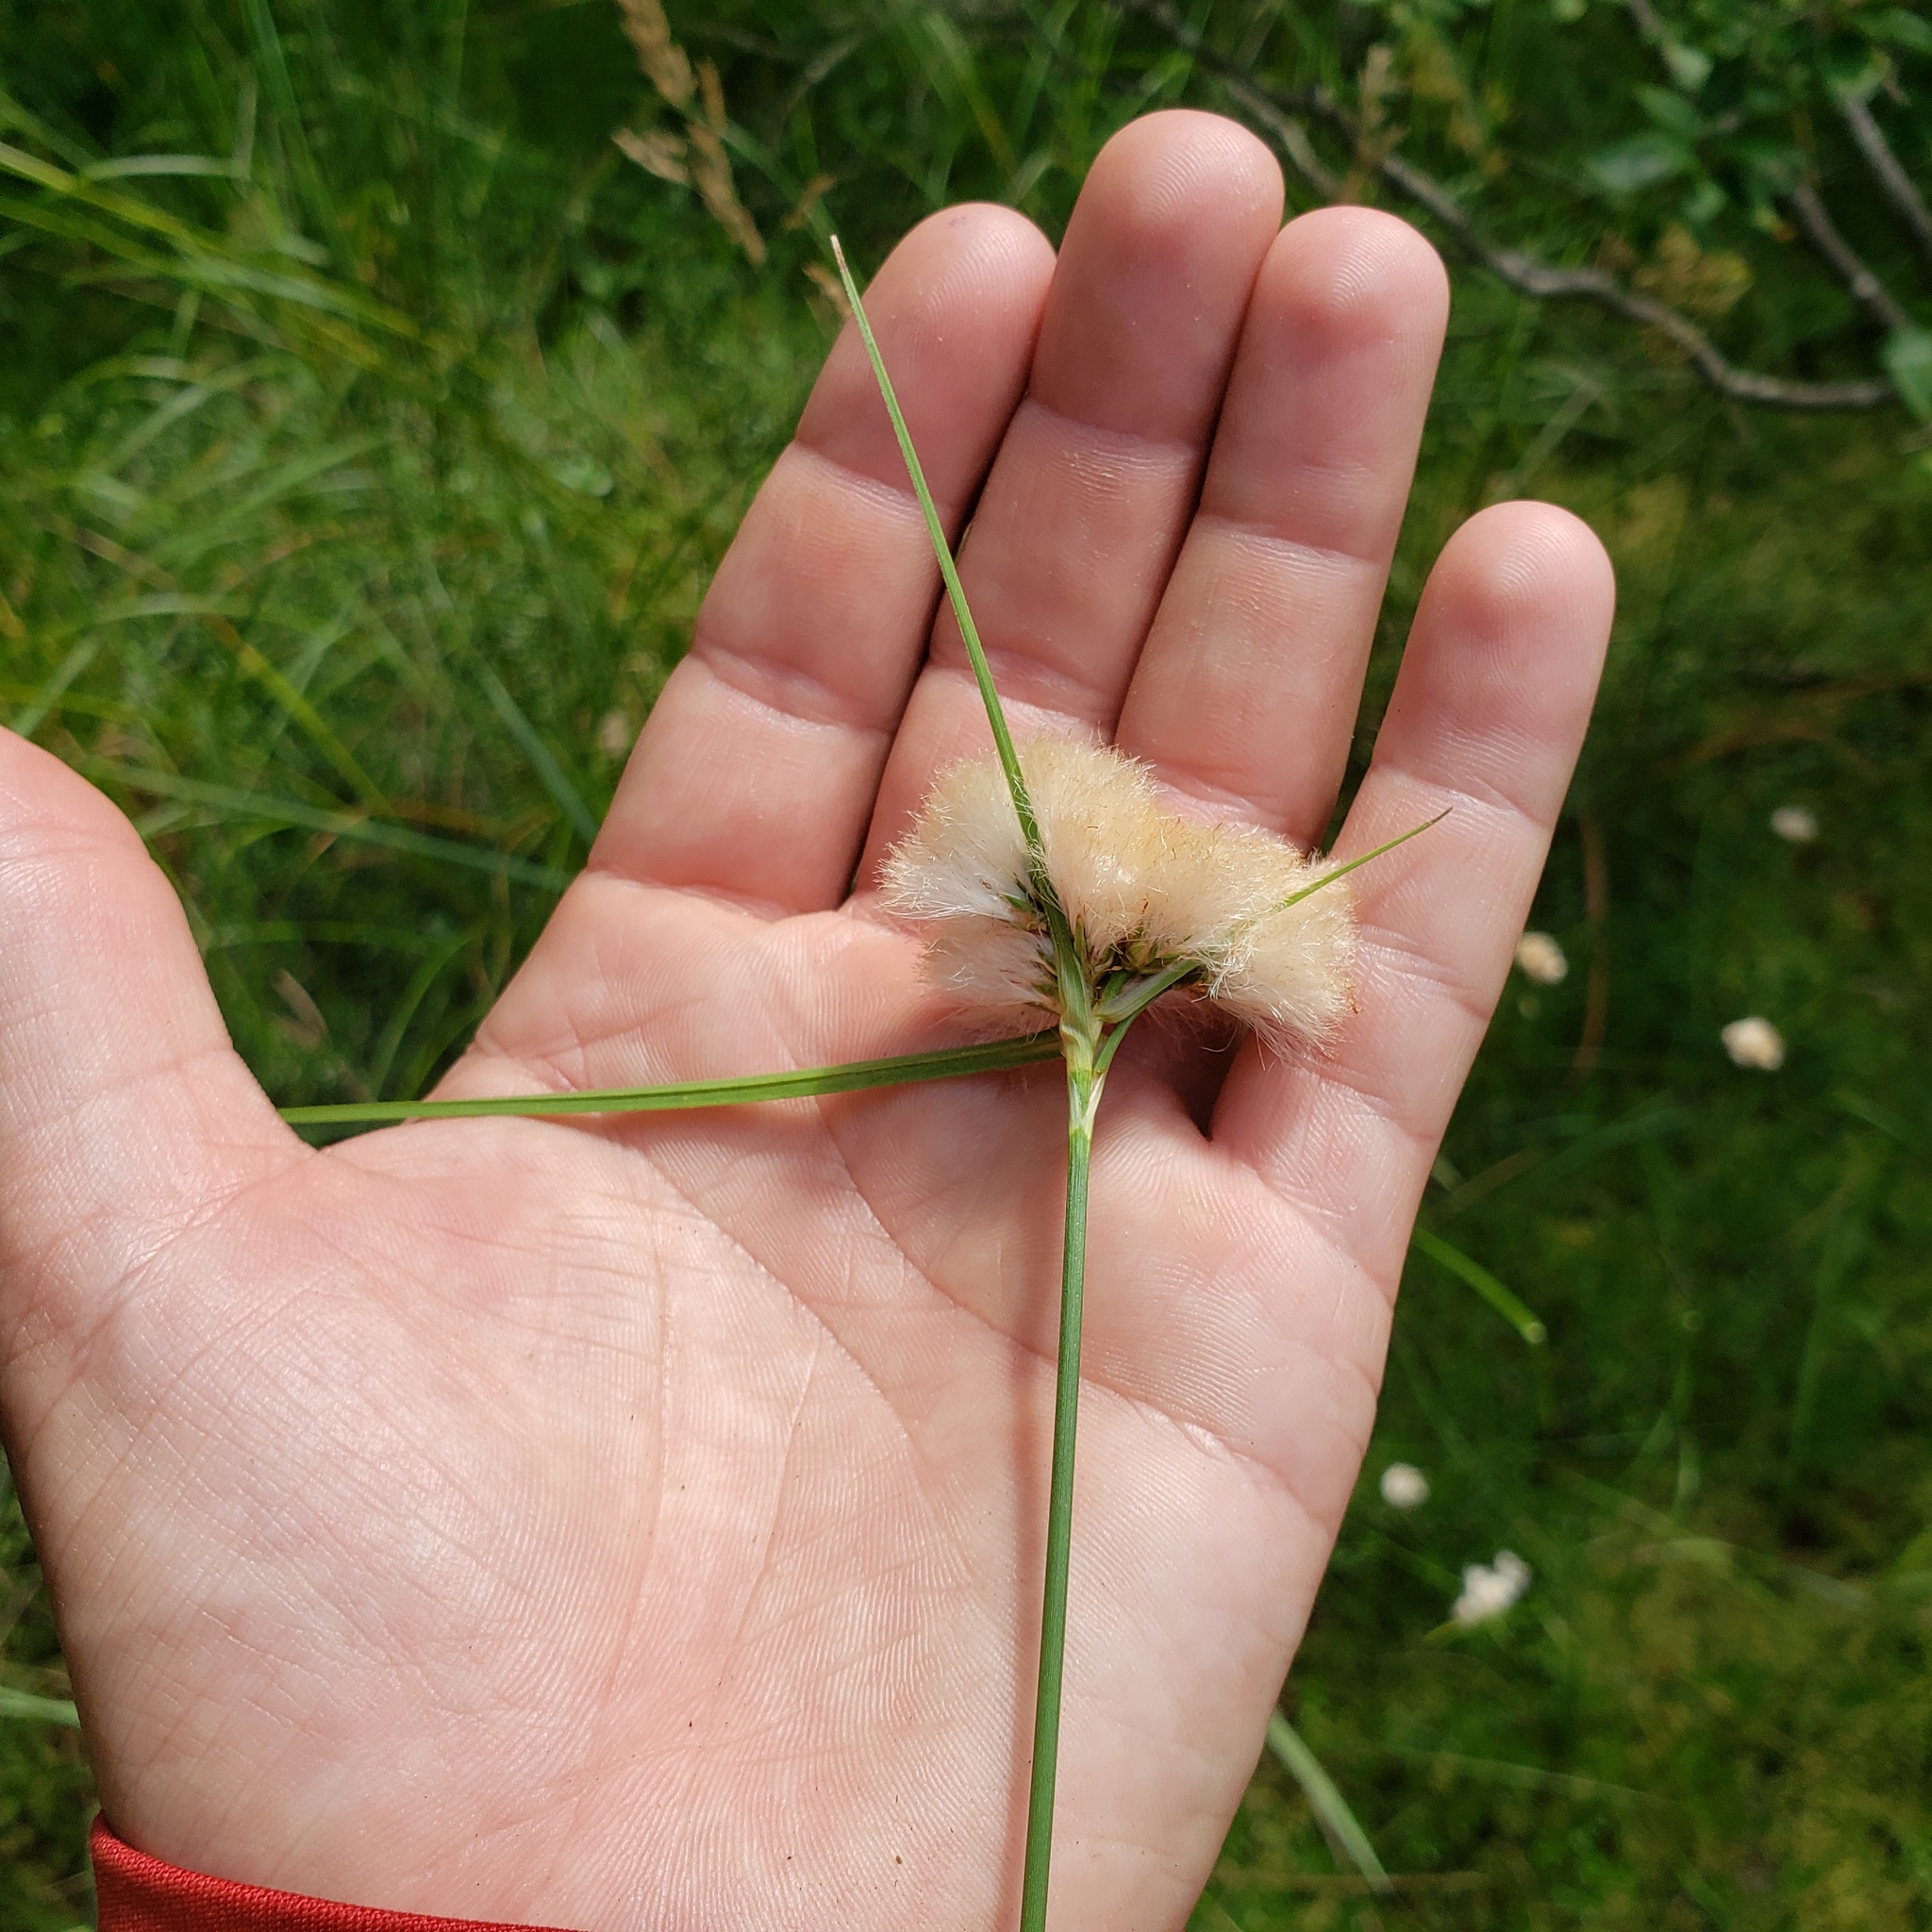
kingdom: Plantae
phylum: Tracheophyta
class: Liliopsida
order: Poales
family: Cyperaceae
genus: Eriophorum
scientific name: Eriophorum virginicum
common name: Tawny cottongrass
